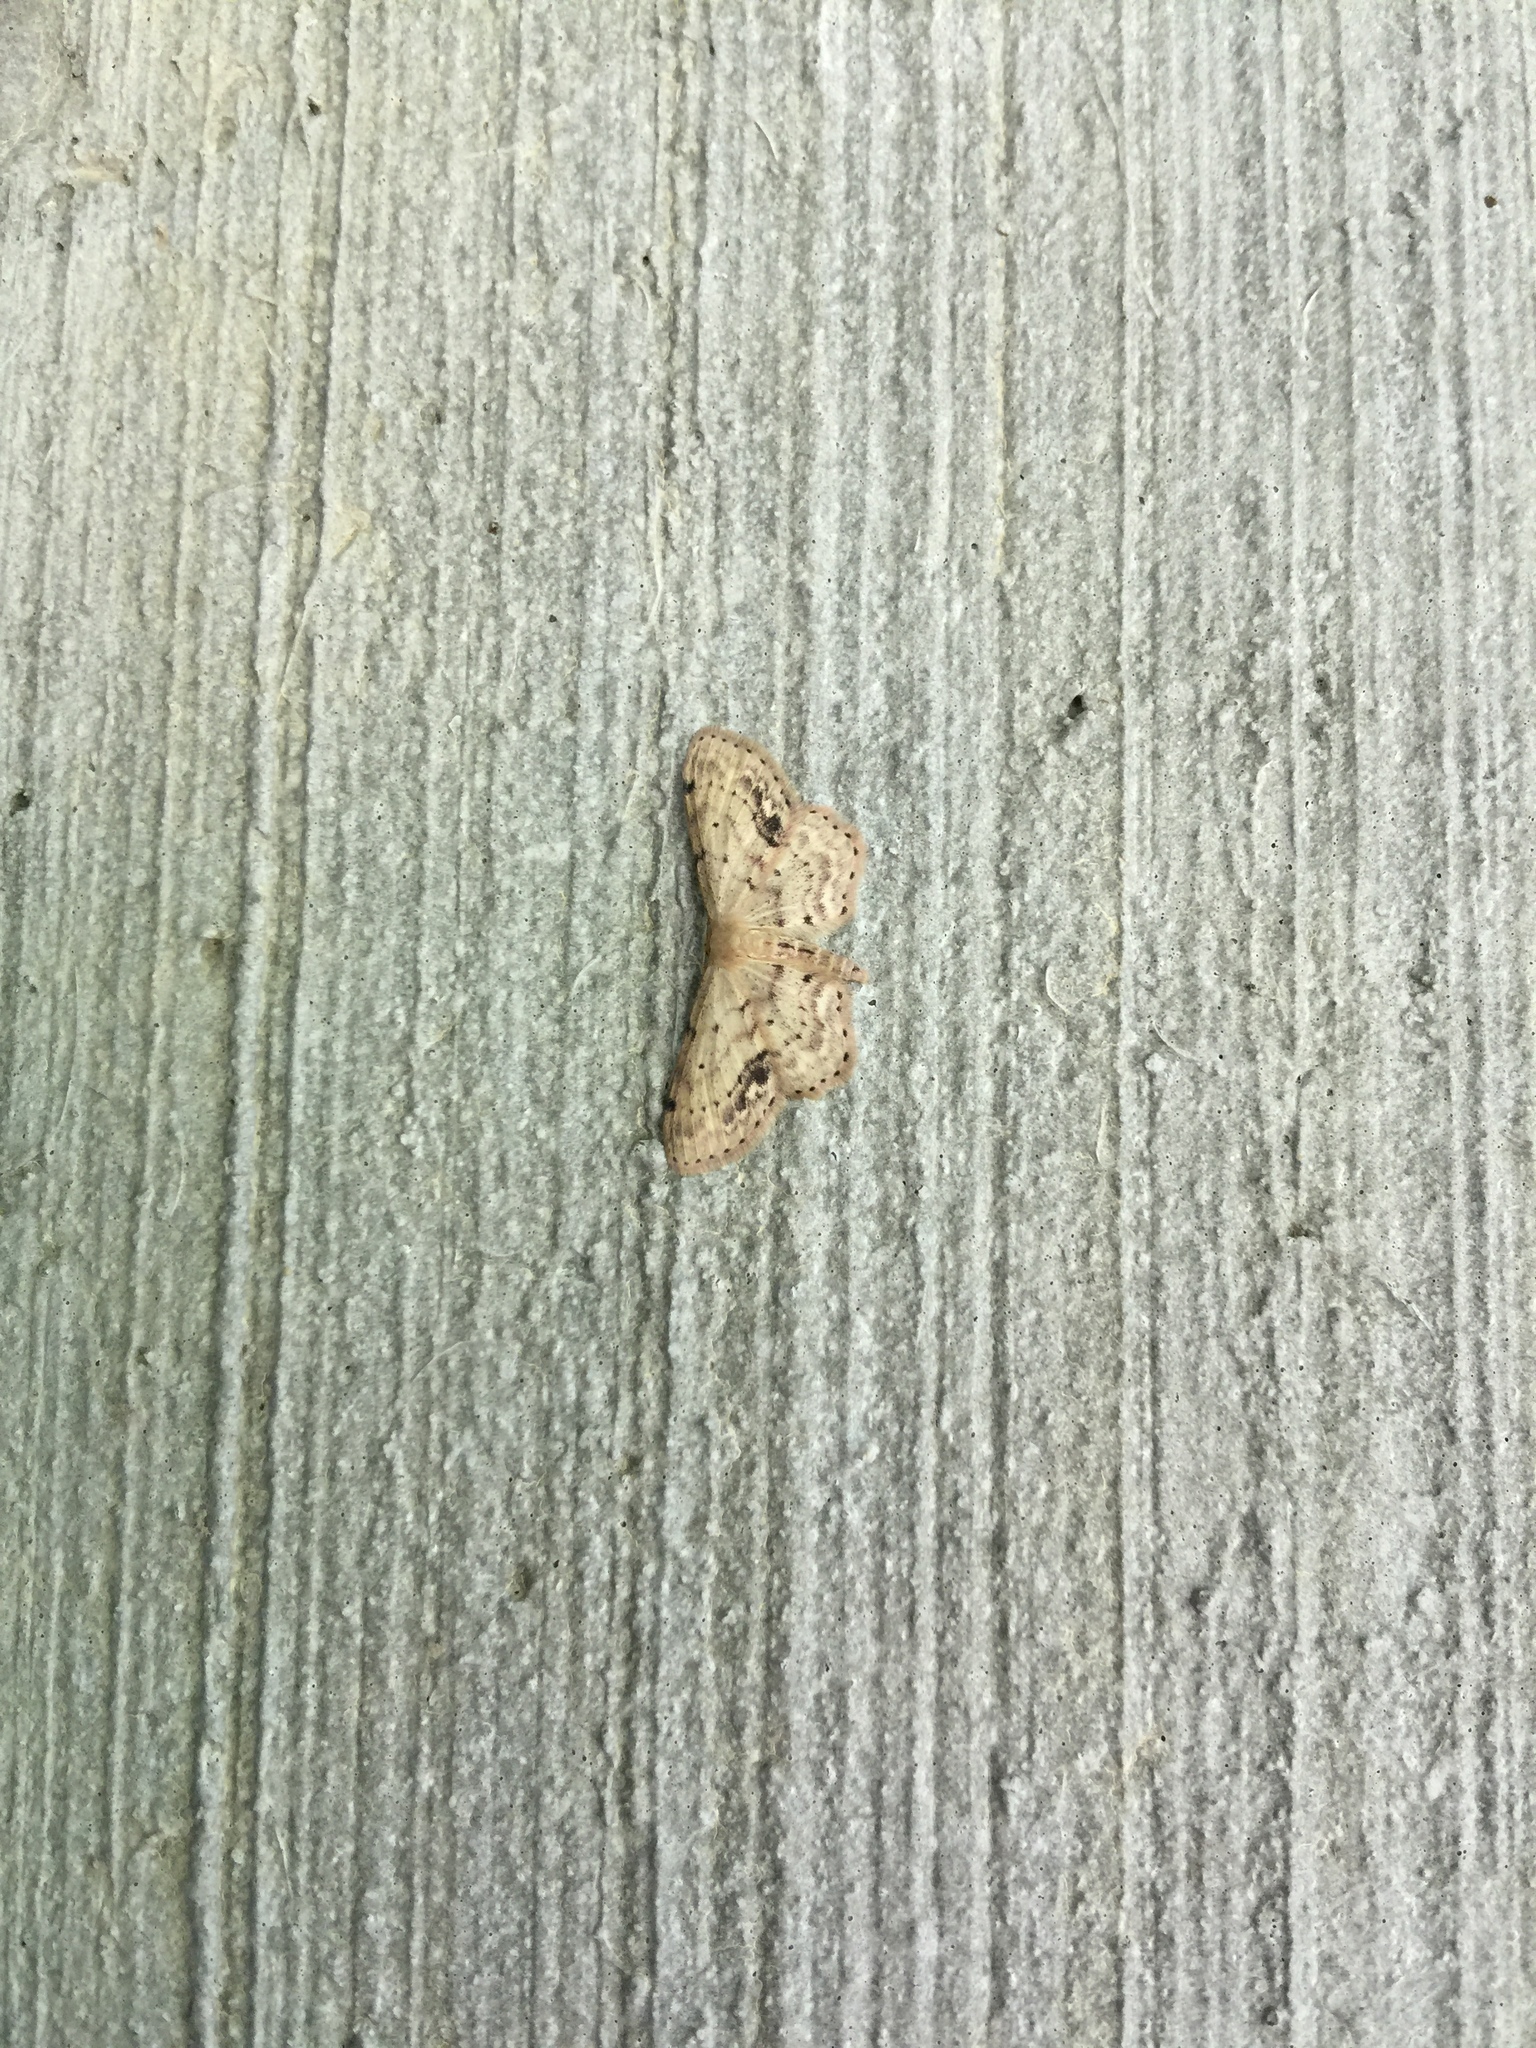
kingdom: Animalia
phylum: Arthropoda
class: Insecta
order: Lepidoptera
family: Geometridae
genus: Idaea
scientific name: Idaea dimidiata
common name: Single-dotted wave
